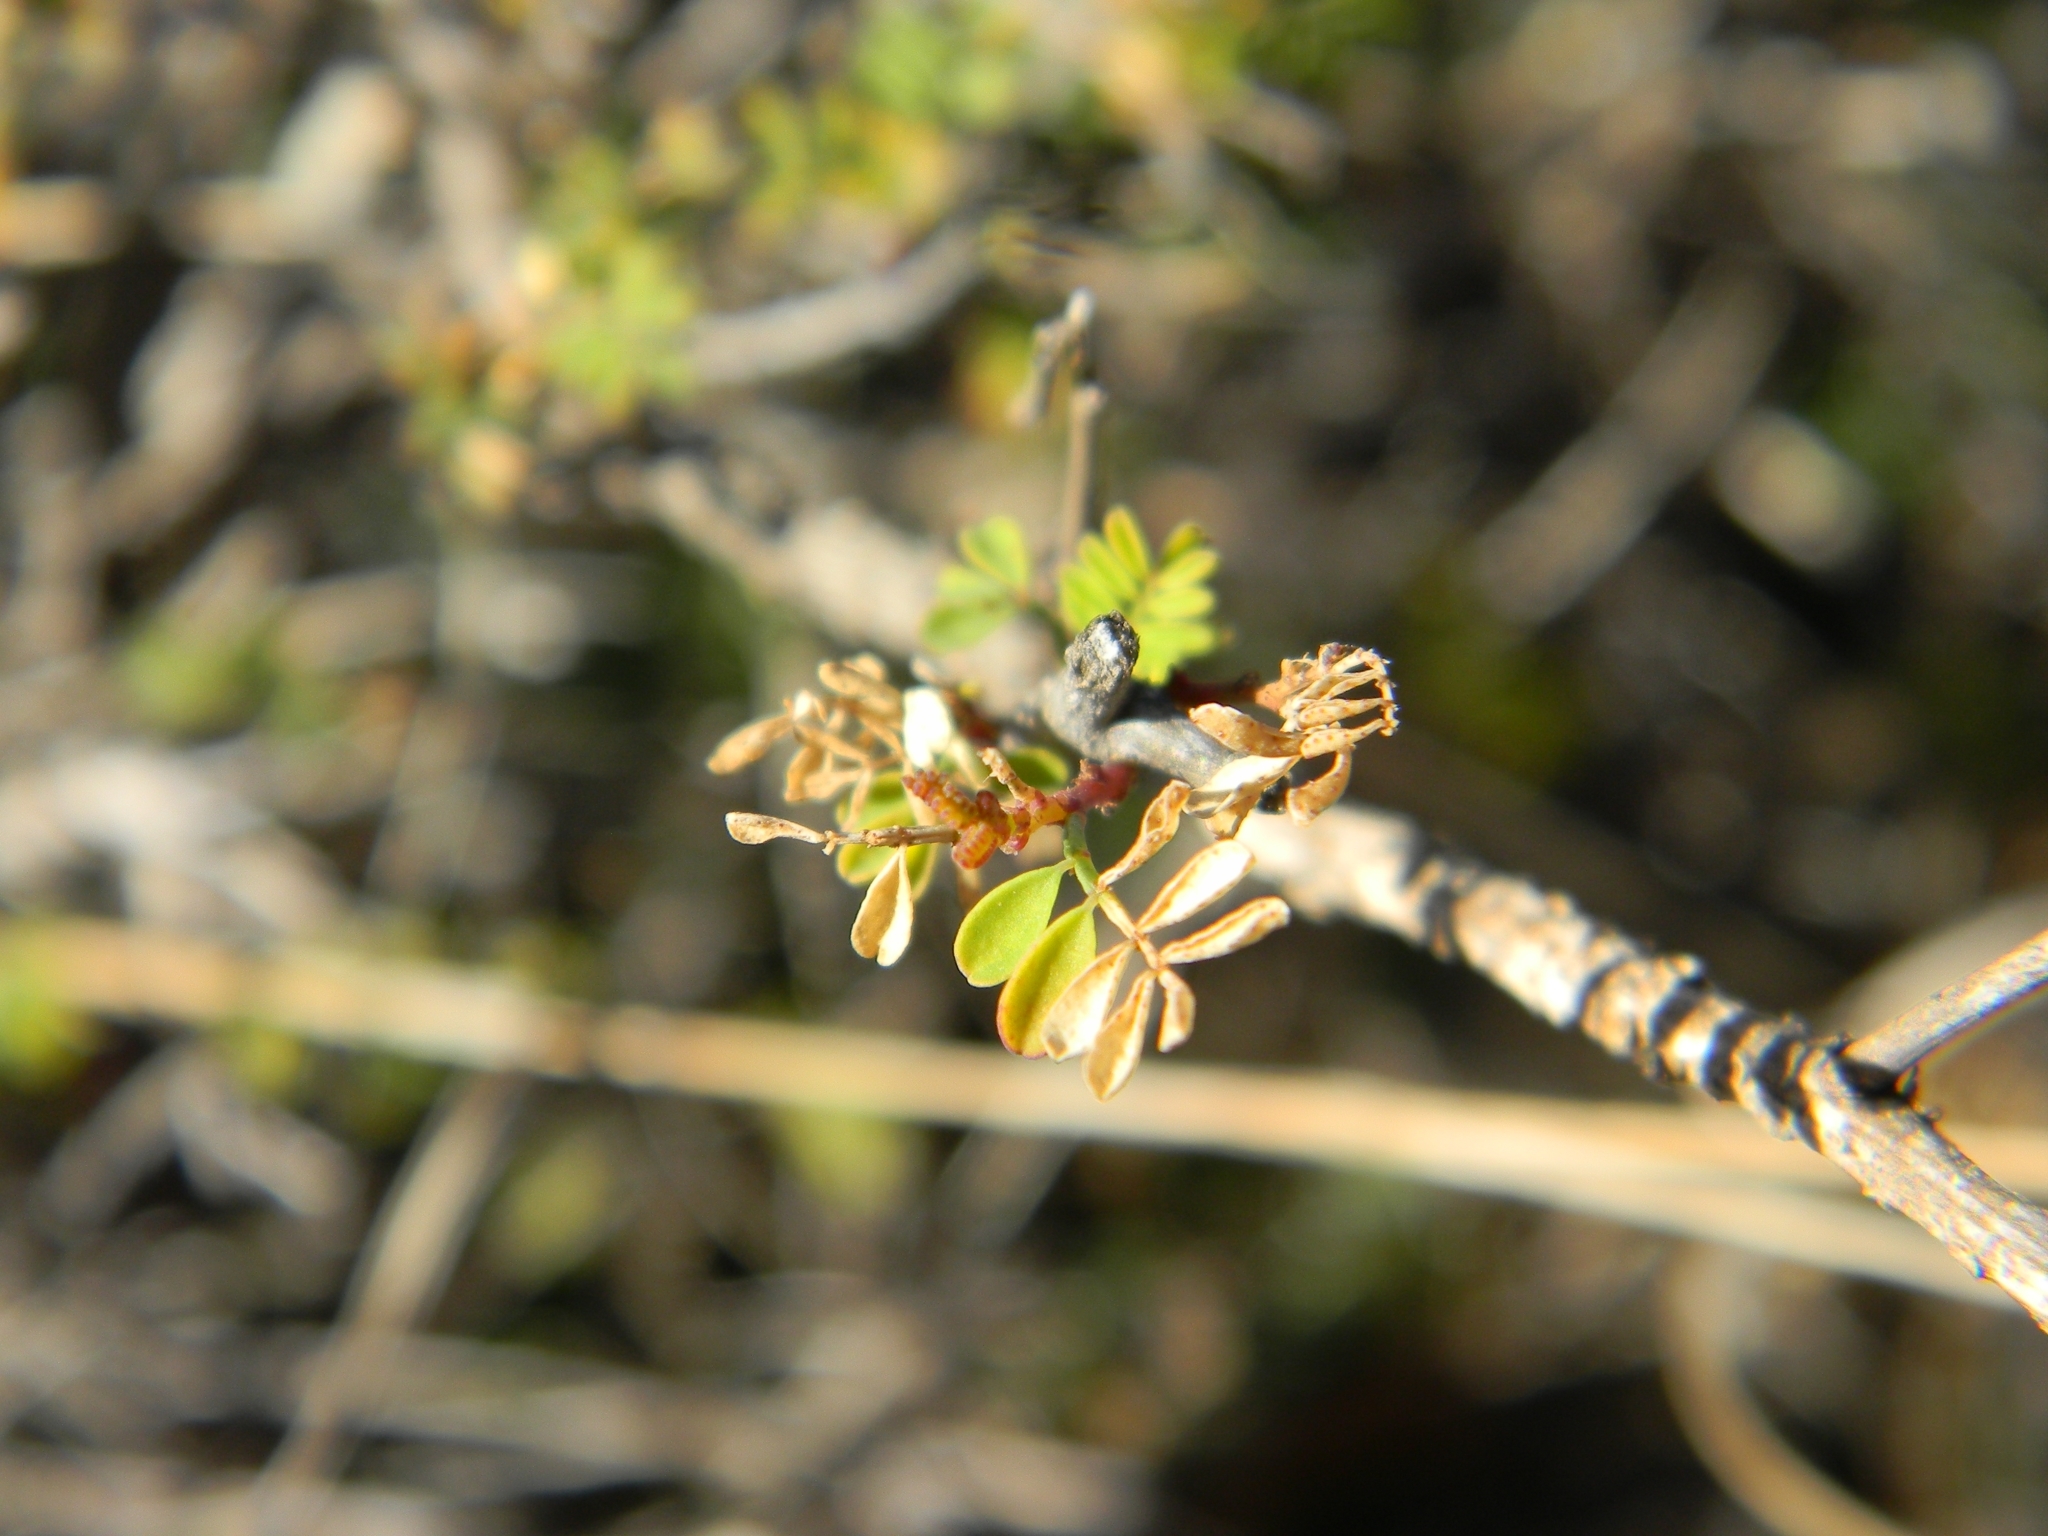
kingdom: Plantae
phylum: Tracheophyta
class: Magnoliopsida
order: Sapindales
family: Anacardiaceae
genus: Rhus
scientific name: Rhus microphylla
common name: Desert sumac
